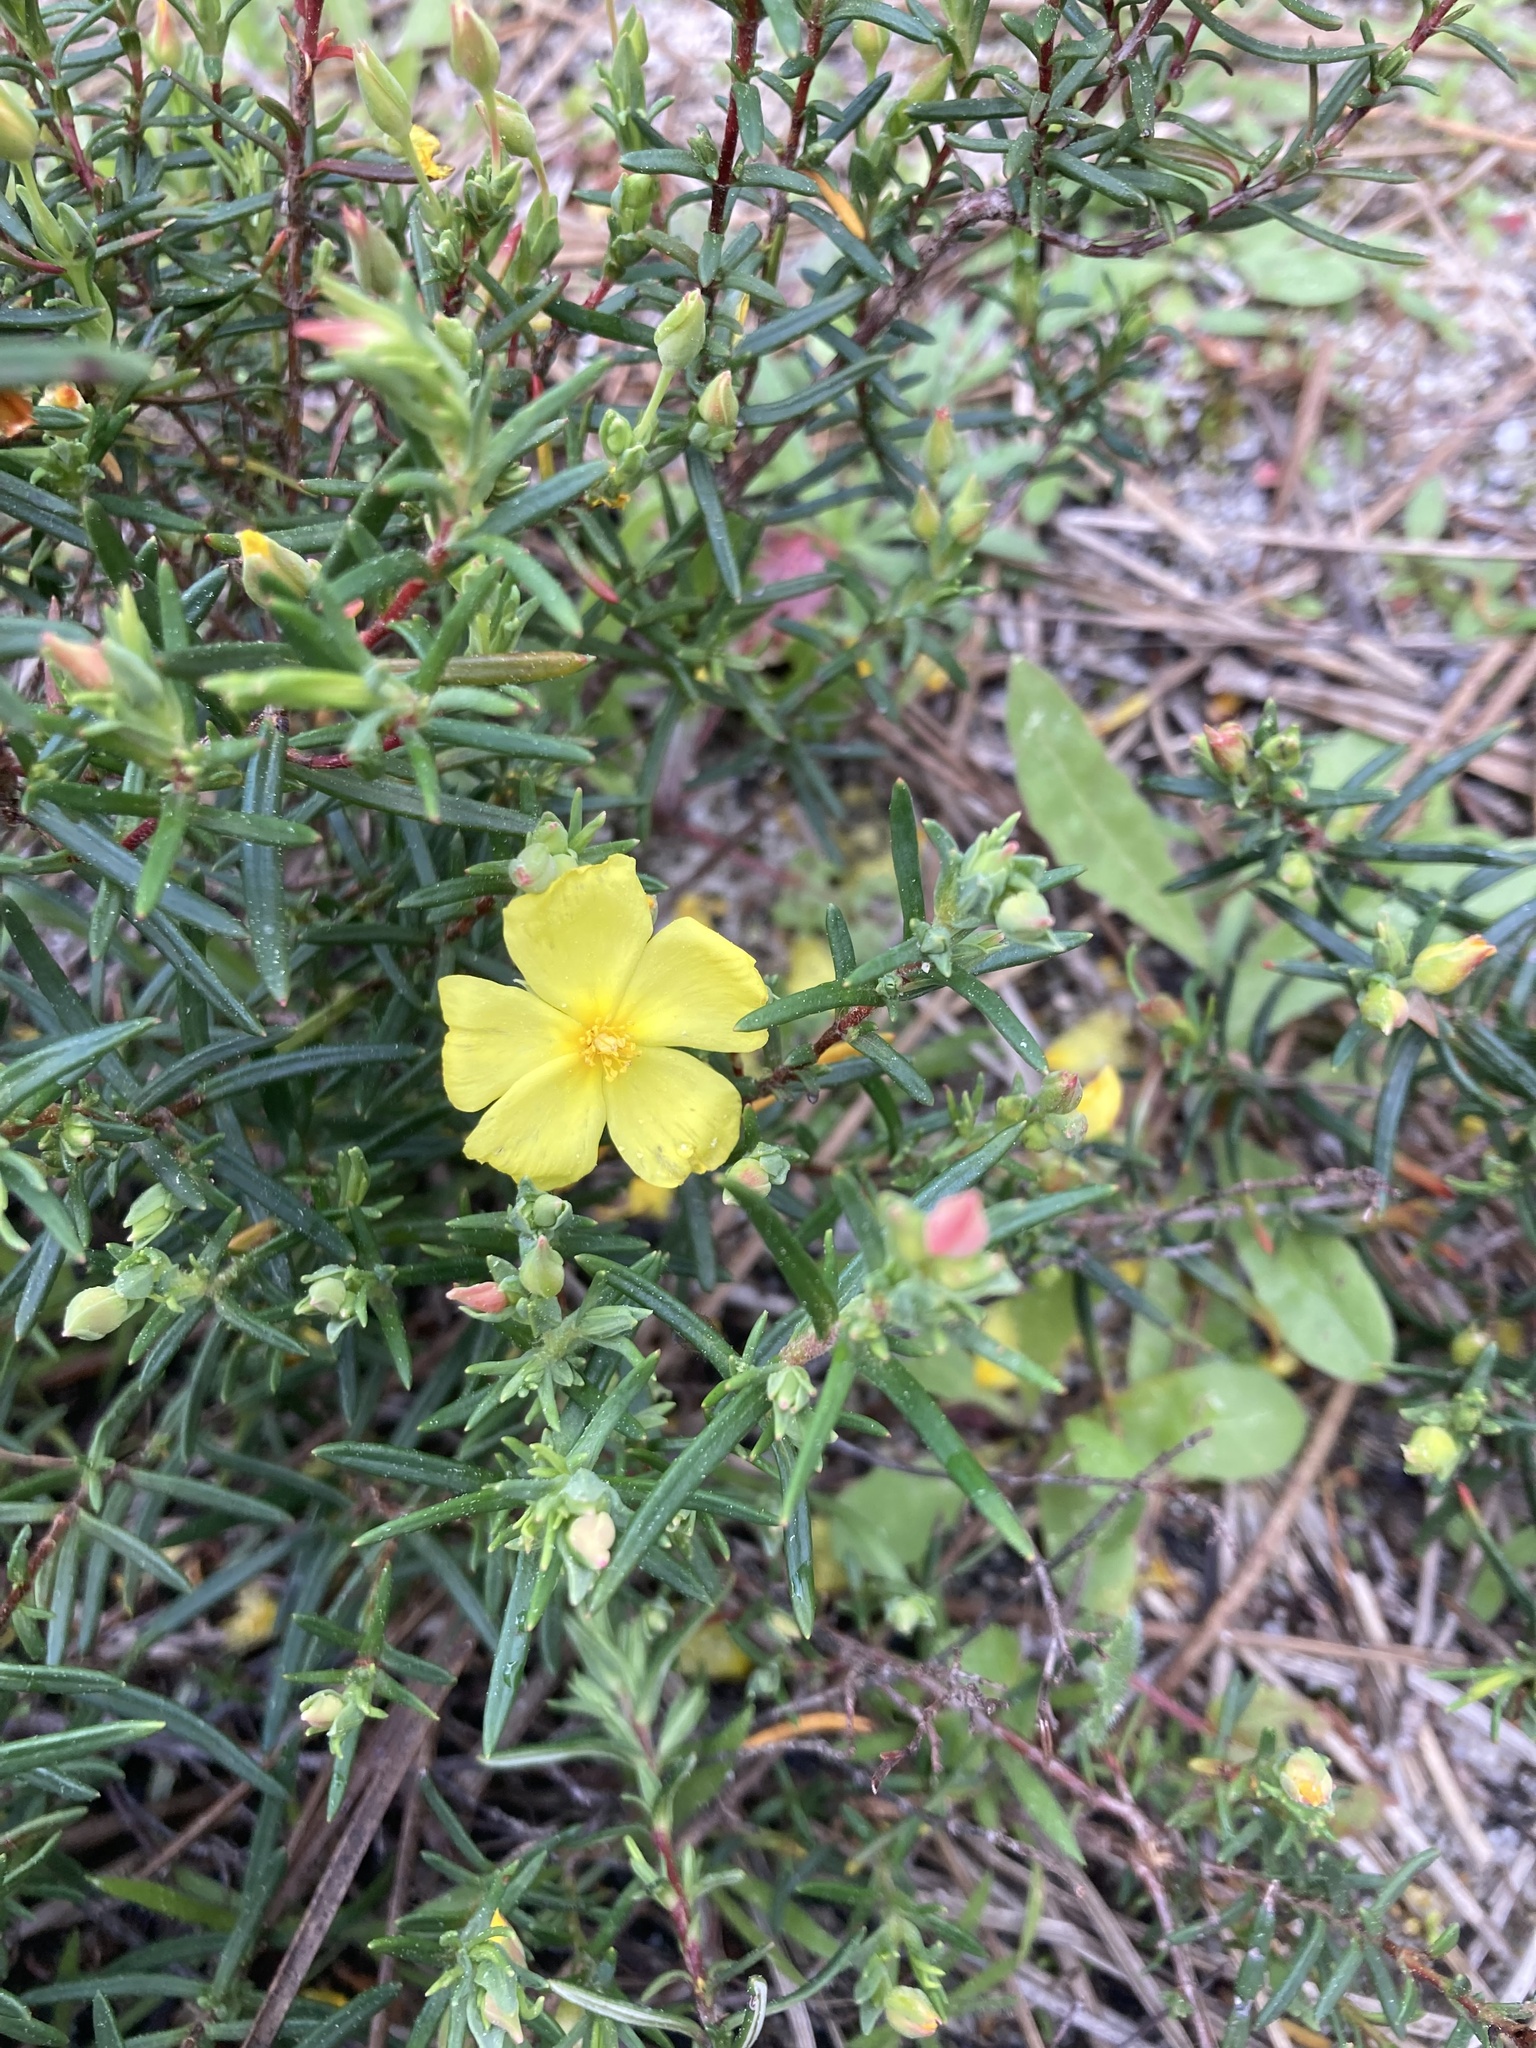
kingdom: Plantae
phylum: Tracheophyta
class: Magnoliopsida
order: Malvales
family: Cistaceae
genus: Halimium
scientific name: Halimium calycinum
